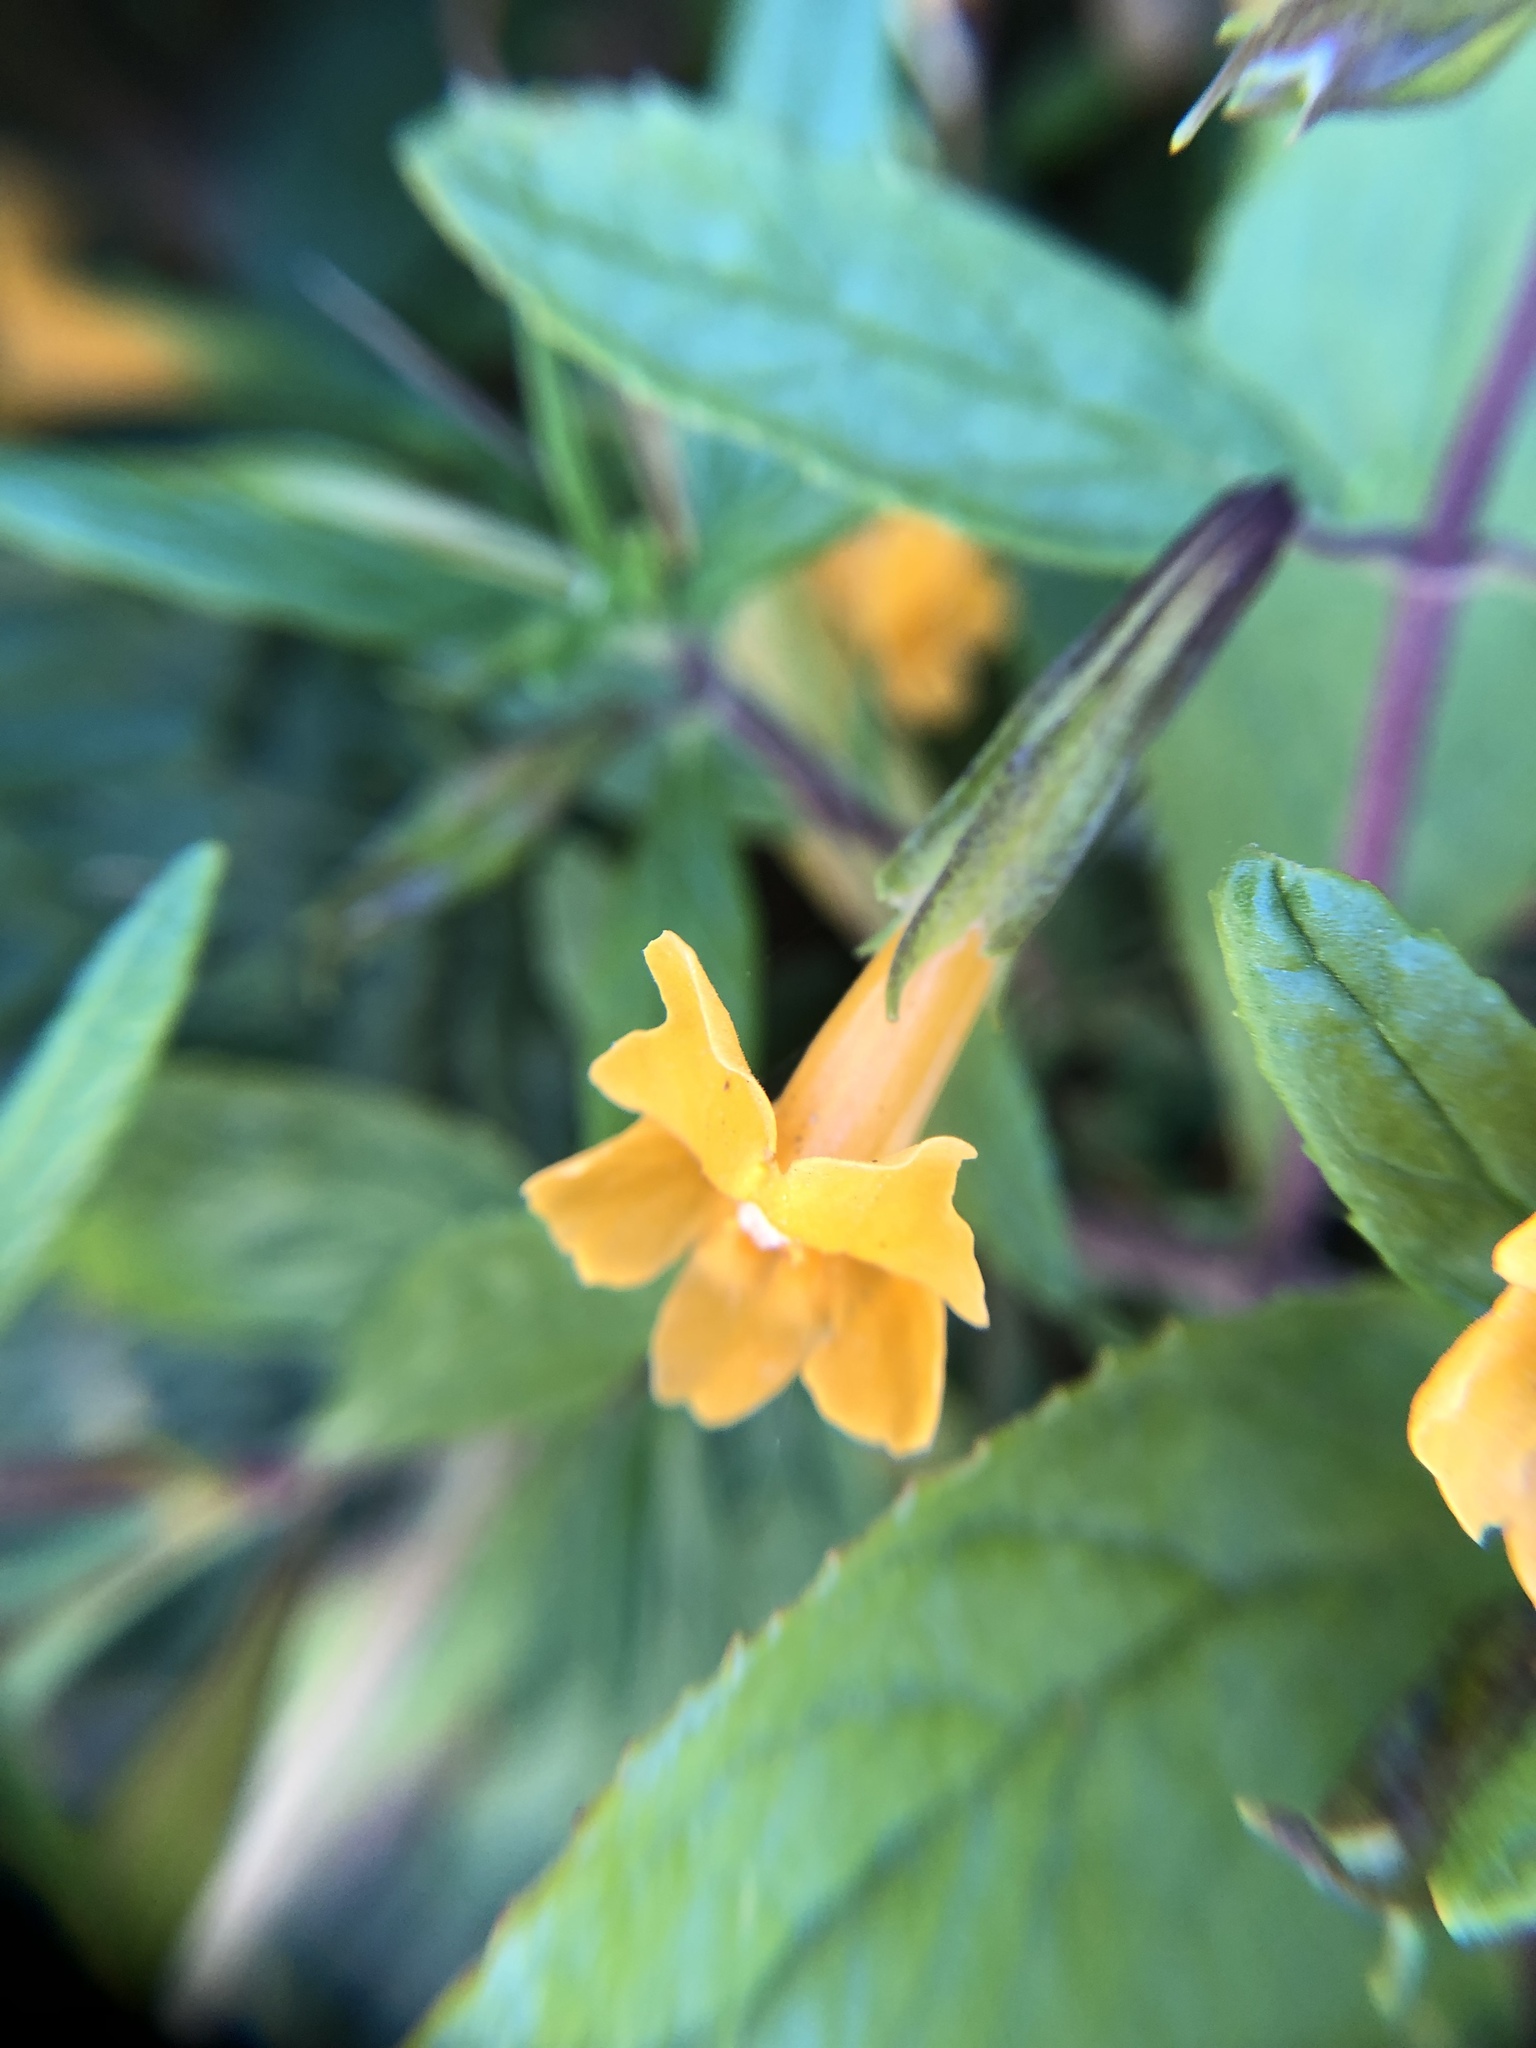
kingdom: Plantae
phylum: Tracheophyta
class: Magnoliopsida
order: Lamiales
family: Phrymaceae
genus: Diplacus
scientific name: Diplacus aurantiacus
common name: Bush monkey-flower
